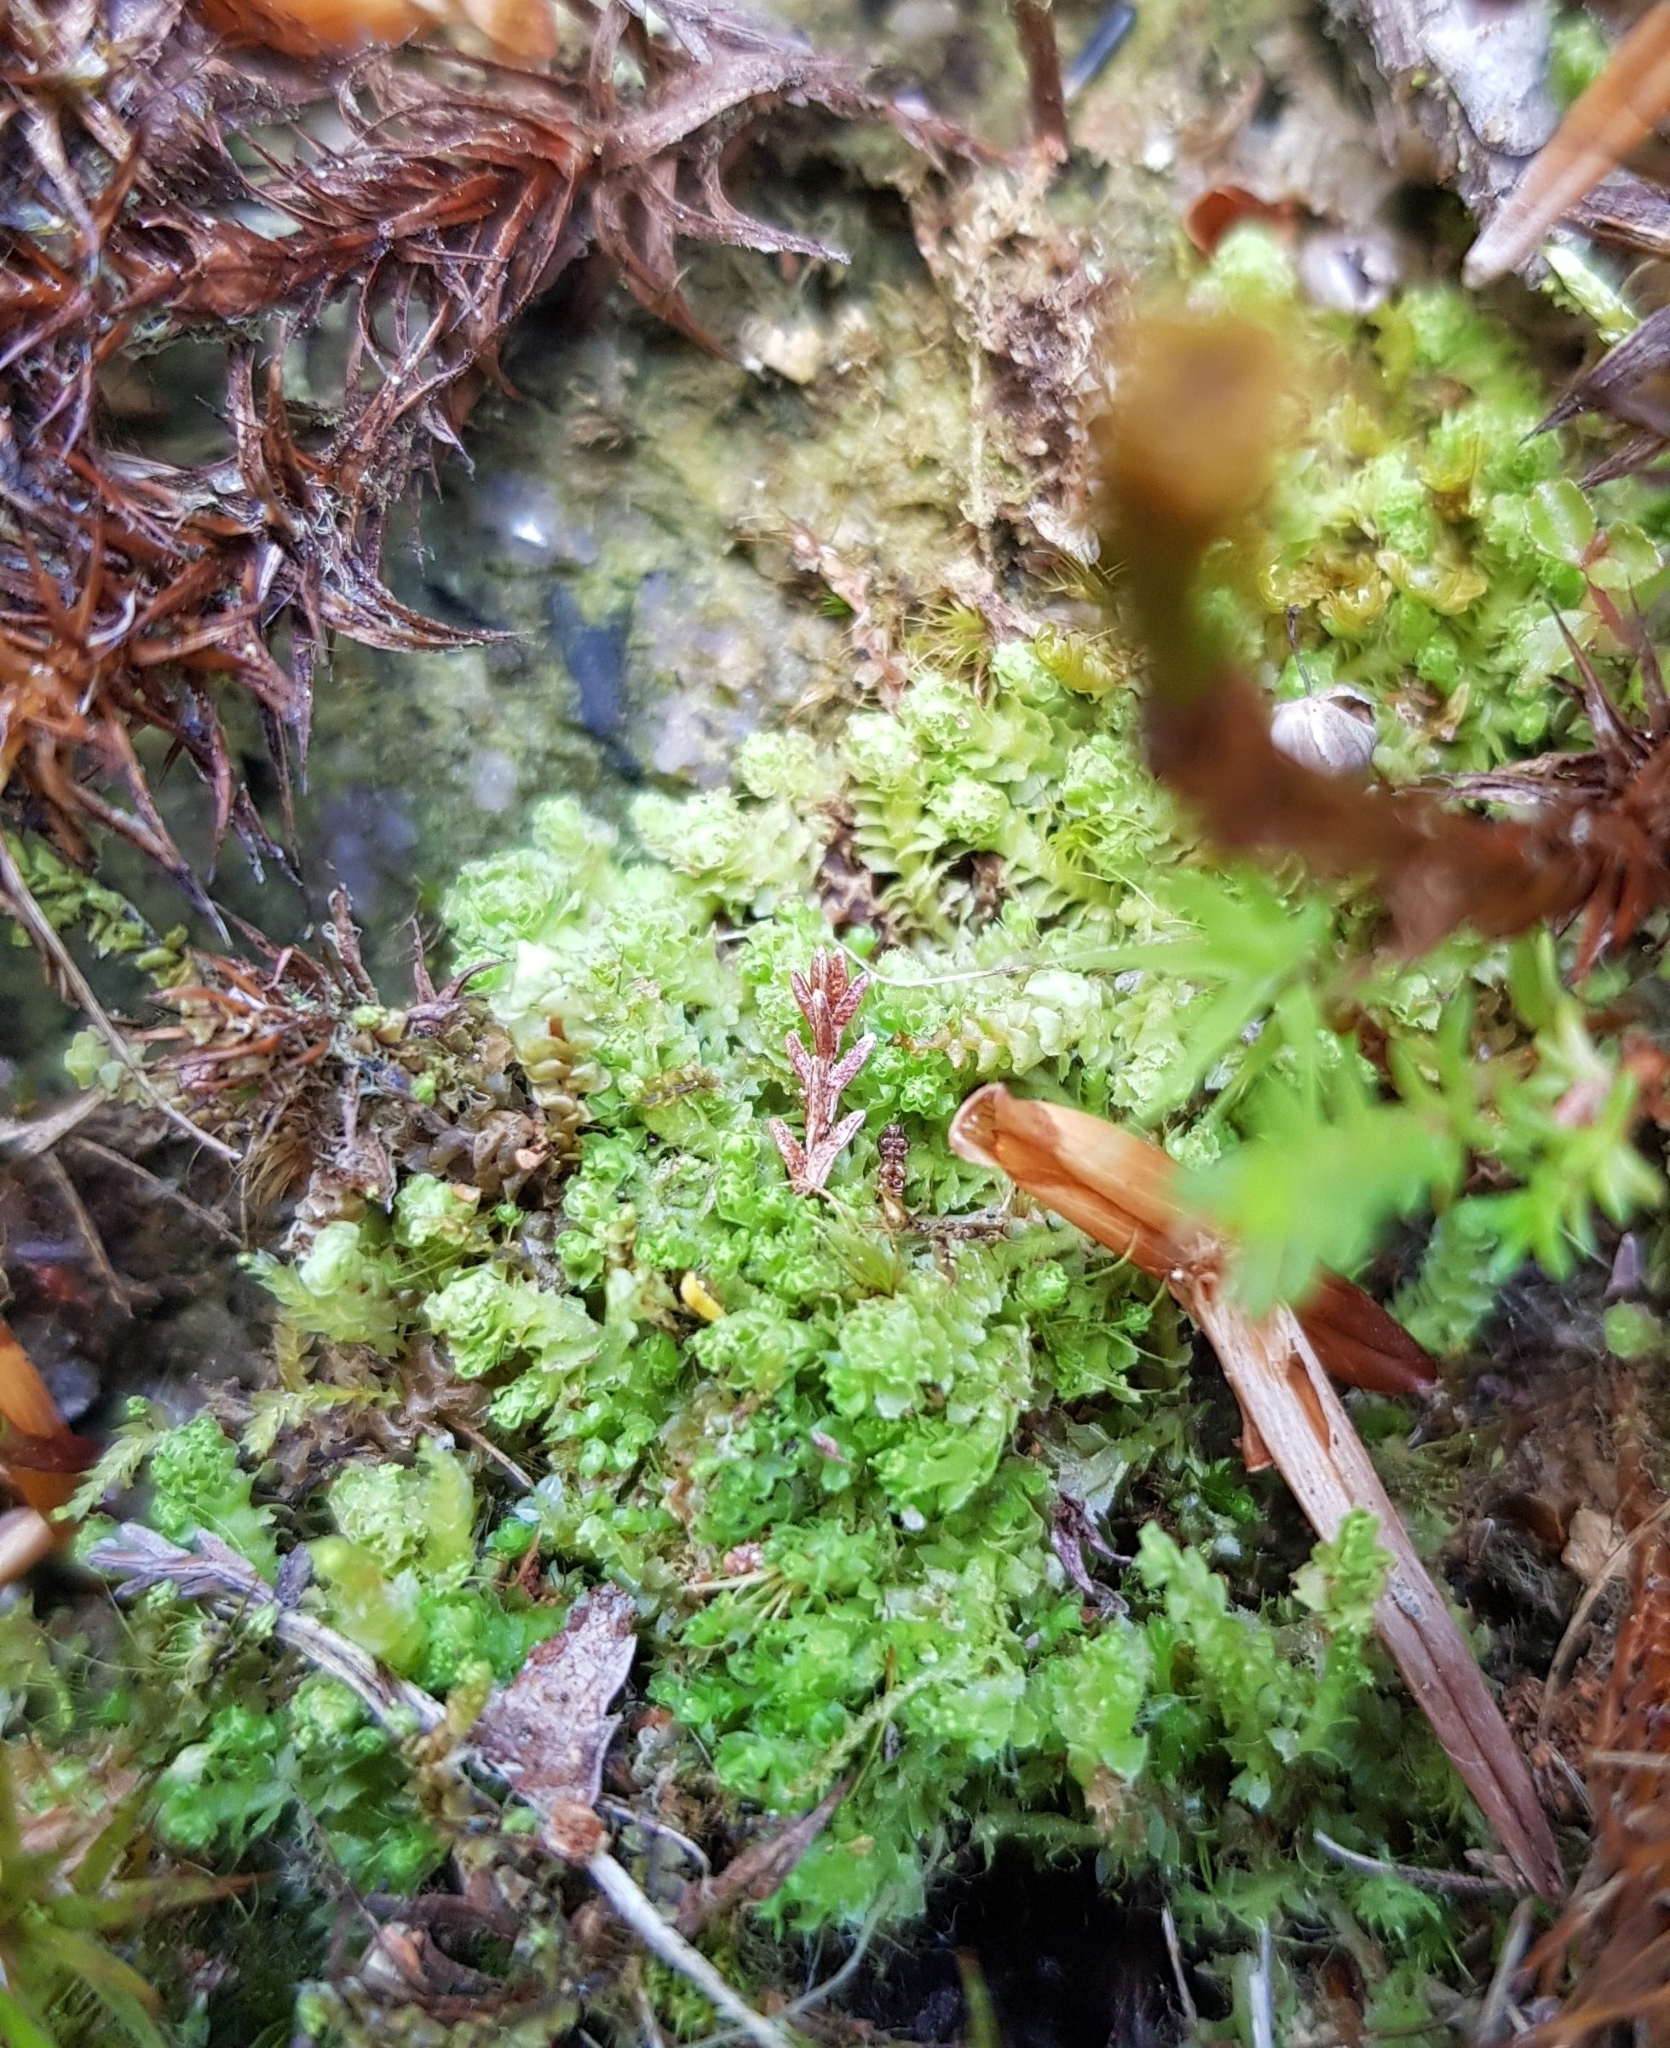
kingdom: Plantae
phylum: Marchantiophyta
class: Jungermanniopsida
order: Jungermanniales
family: Scapaniaceae
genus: Schistochilopsis
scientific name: Schistochilopsis incisa
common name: Jagged notchwort
